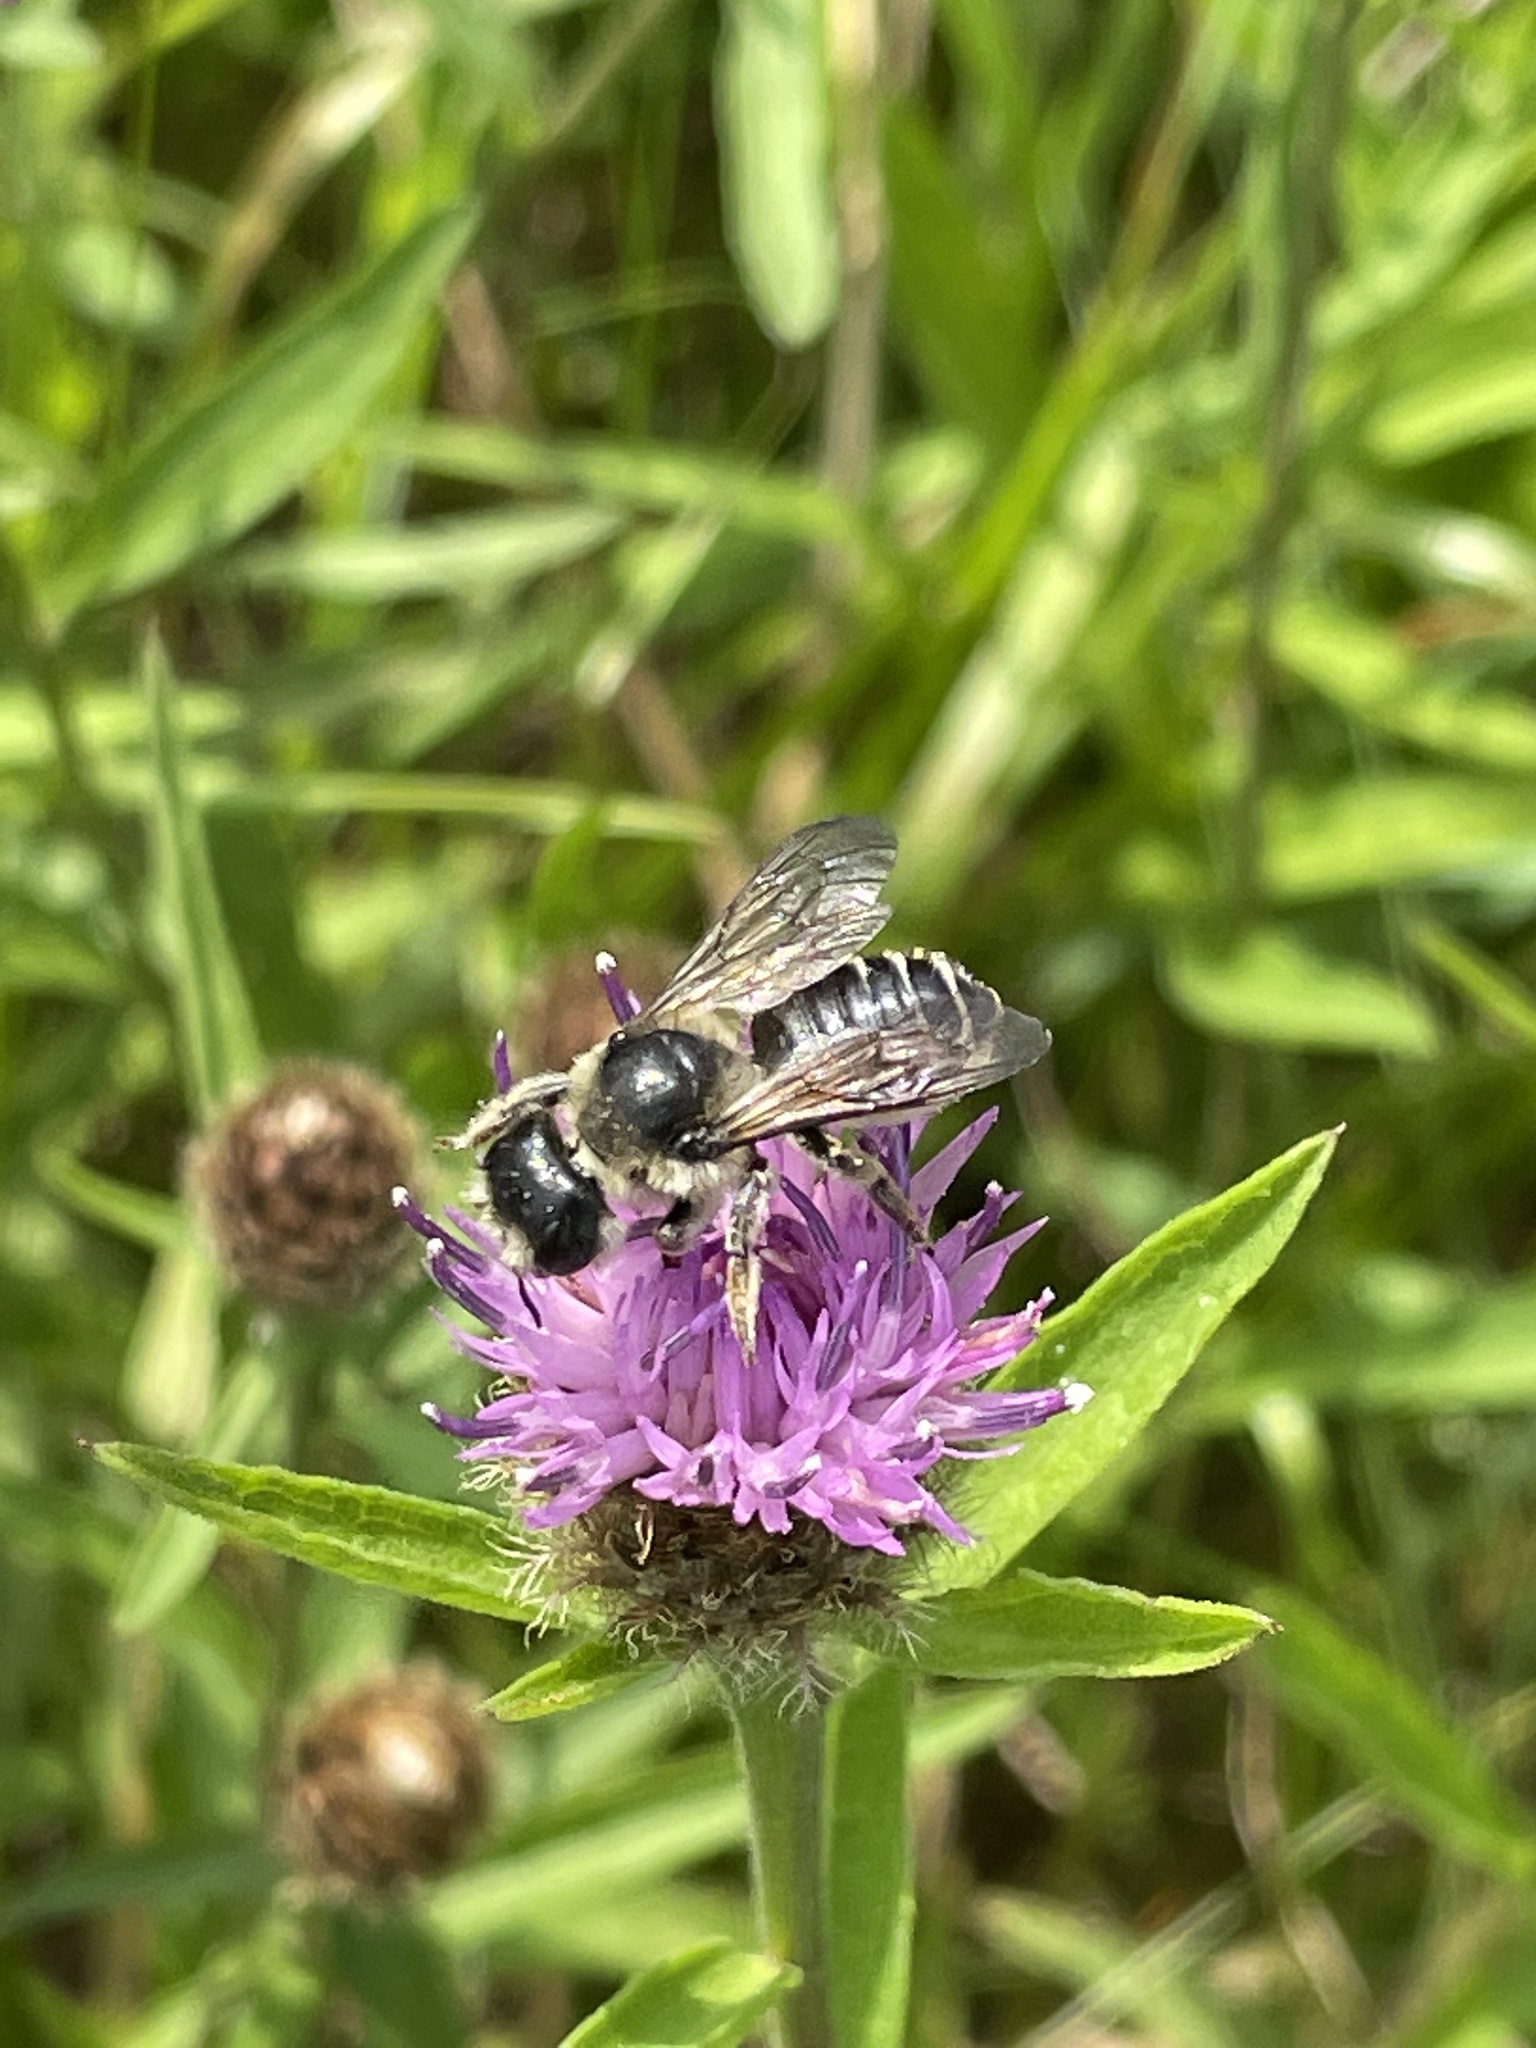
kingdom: Animalia
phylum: Arthropoda
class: Insecta
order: Hymenoptera
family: Megachilidae
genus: Megachile
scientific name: Megachile inermis
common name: Unarmed leafcutter bee
